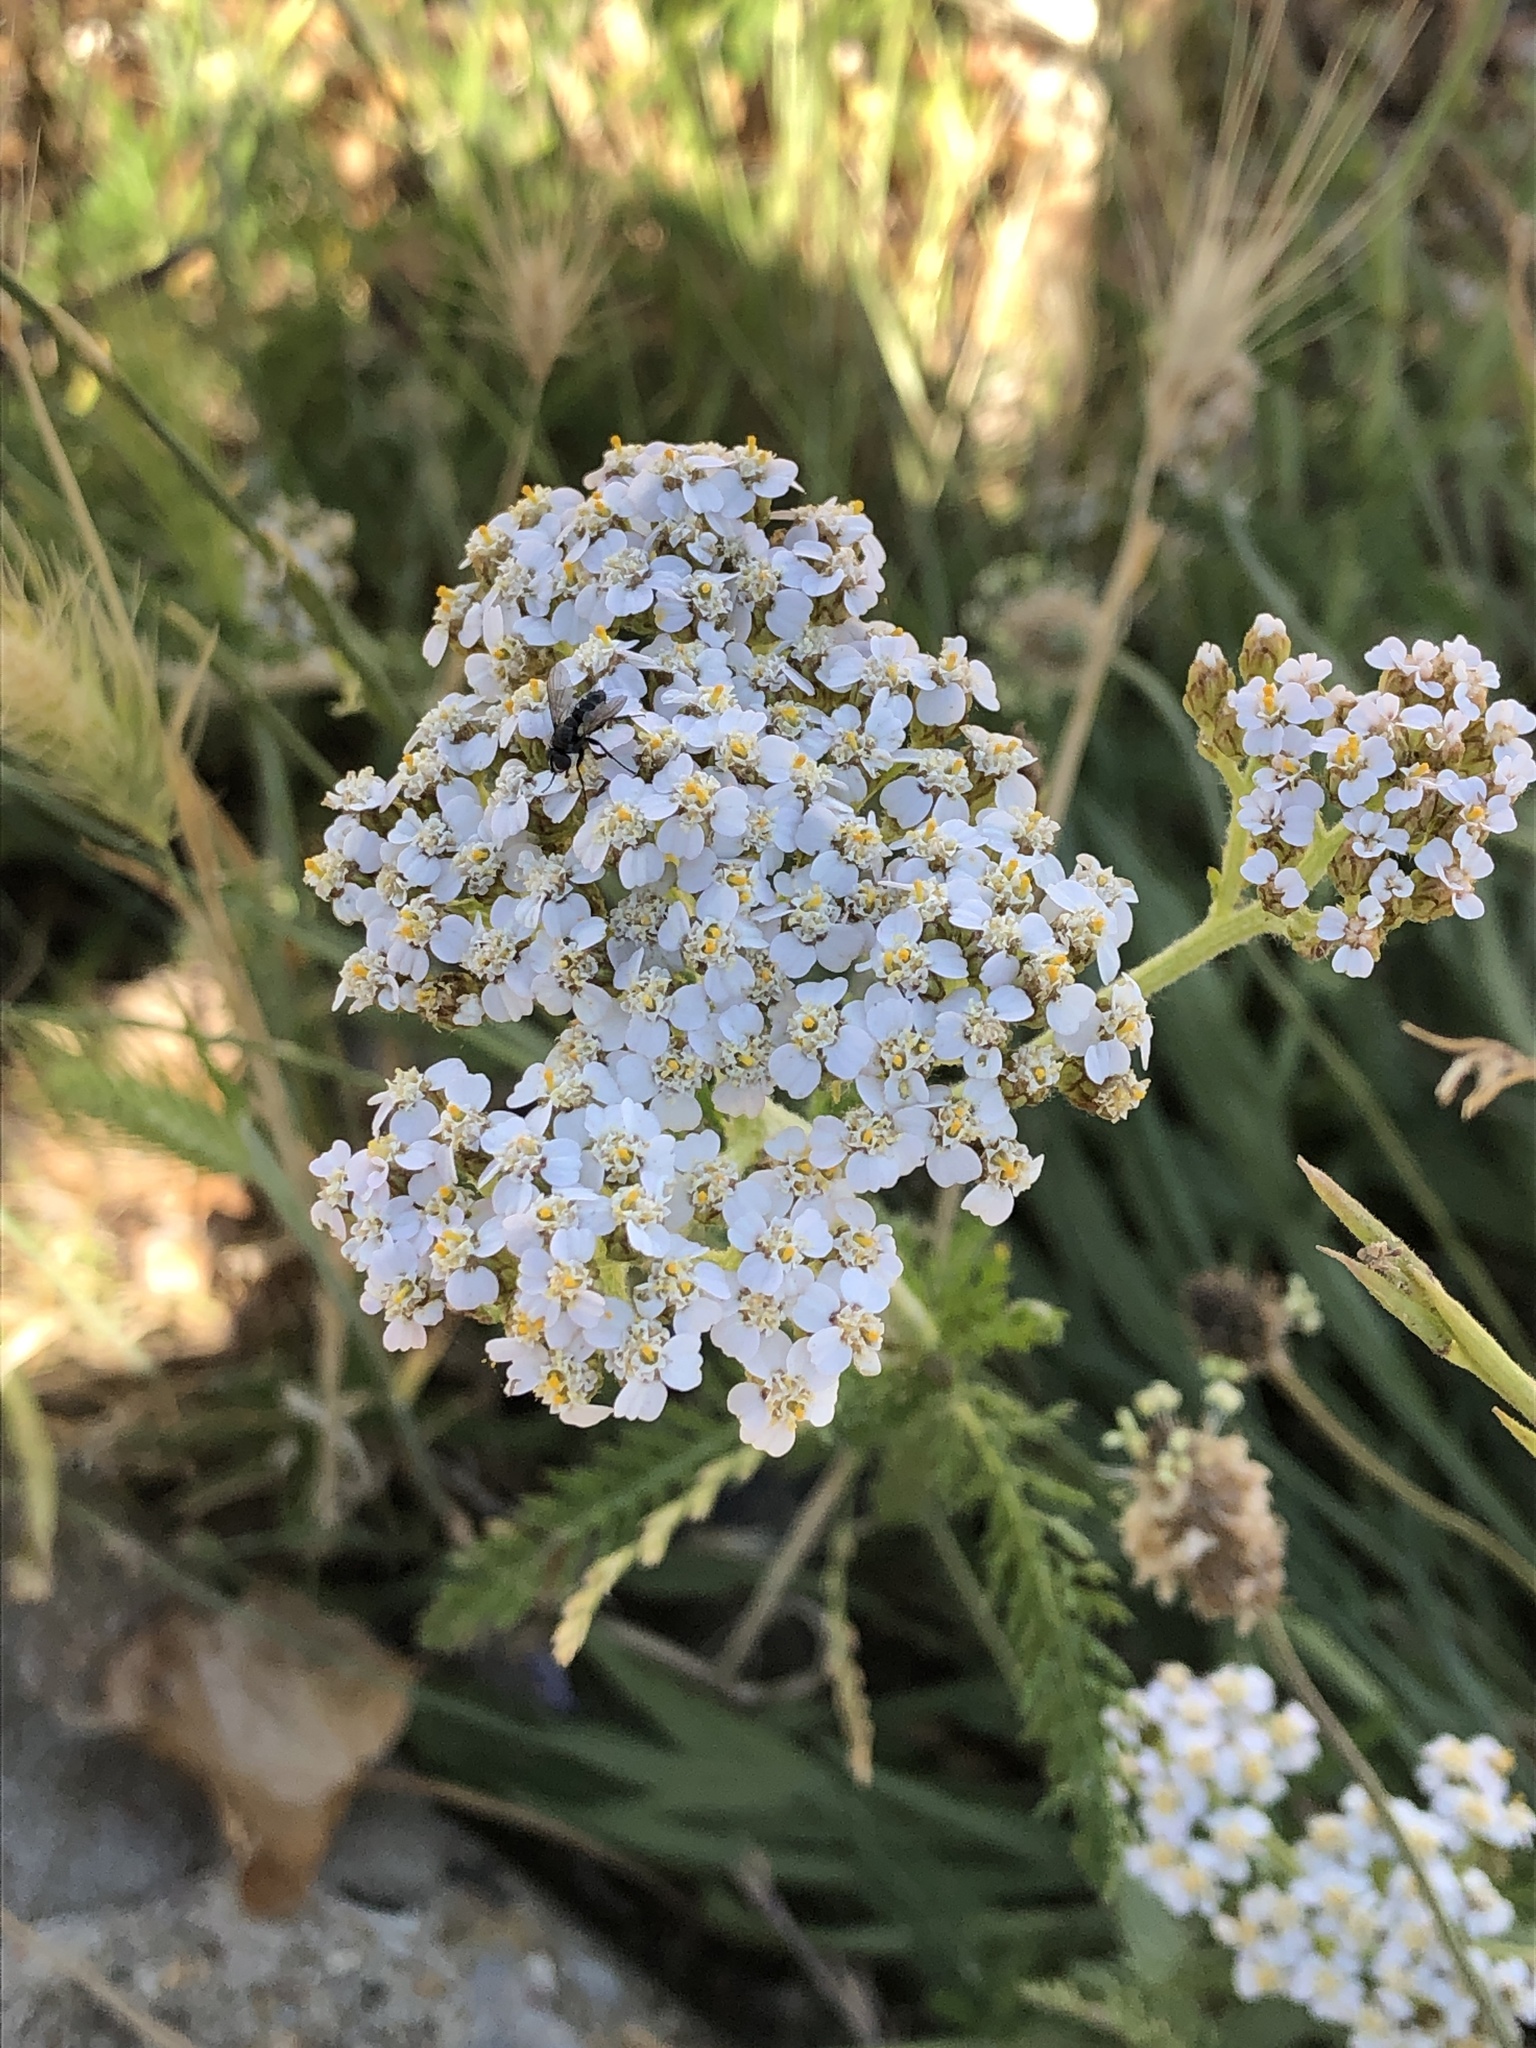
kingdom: Plantae
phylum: Tracheophyta
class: Magnoliopsida
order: Asterales
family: Asteraceae
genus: Achillea
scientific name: Achillea millefolium
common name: Yarrow
